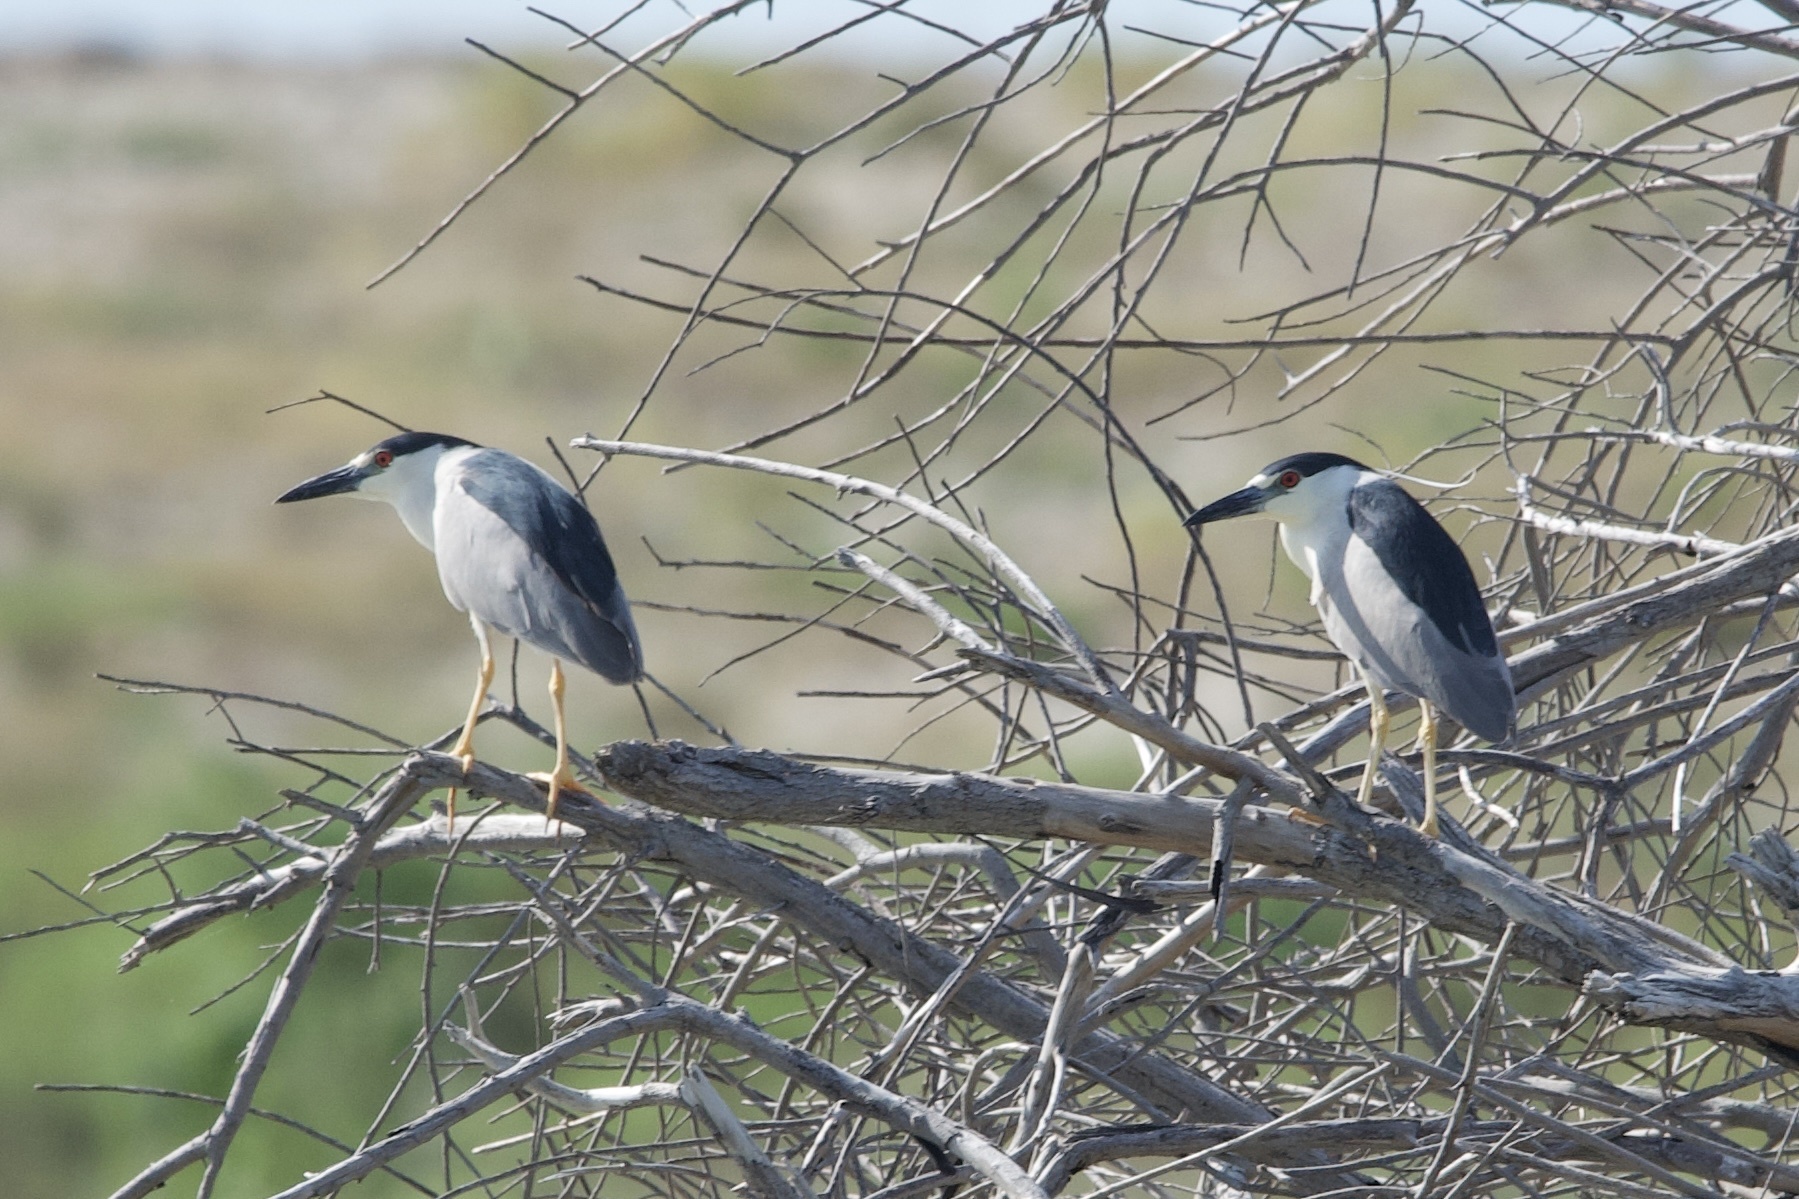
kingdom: Animalia
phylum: Chordata
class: Aves
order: Pelecaniformes
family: Ardeidae
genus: Nycticorax
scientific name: Nycticorax nycticorax
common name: Black-crowned night heron
